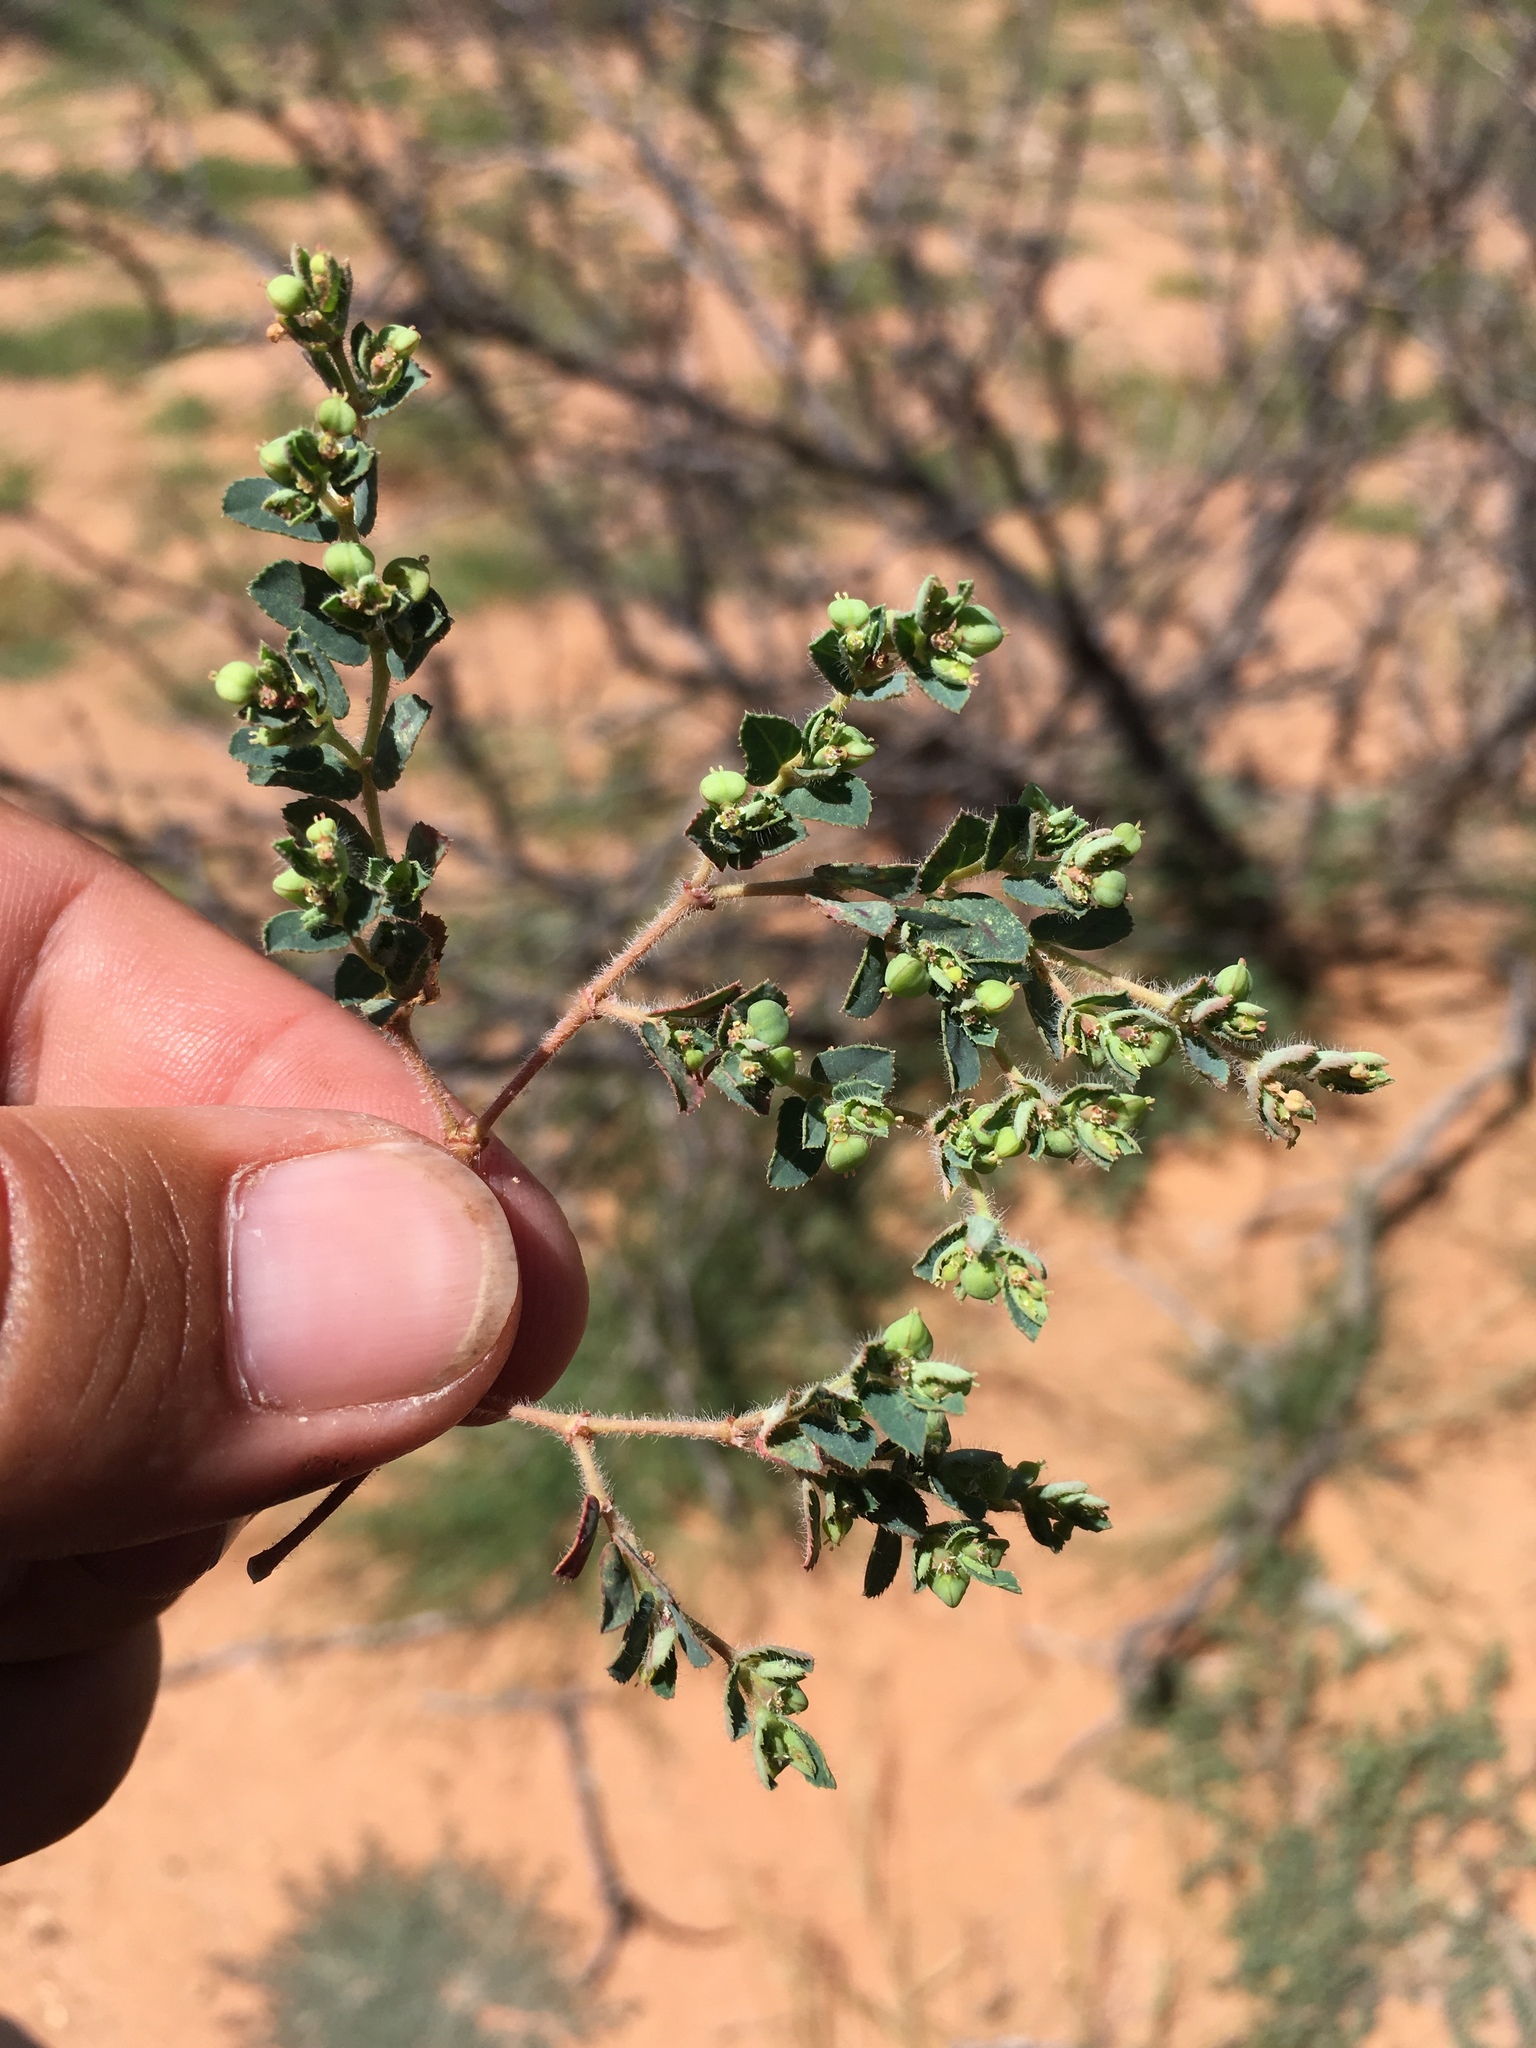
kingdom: Plantae
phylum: Tracheophyta
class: Magnoliopsida
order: Malpighiales
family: Euphorbiaceae
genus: Euphorbia
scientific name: Euphorbia serrula
